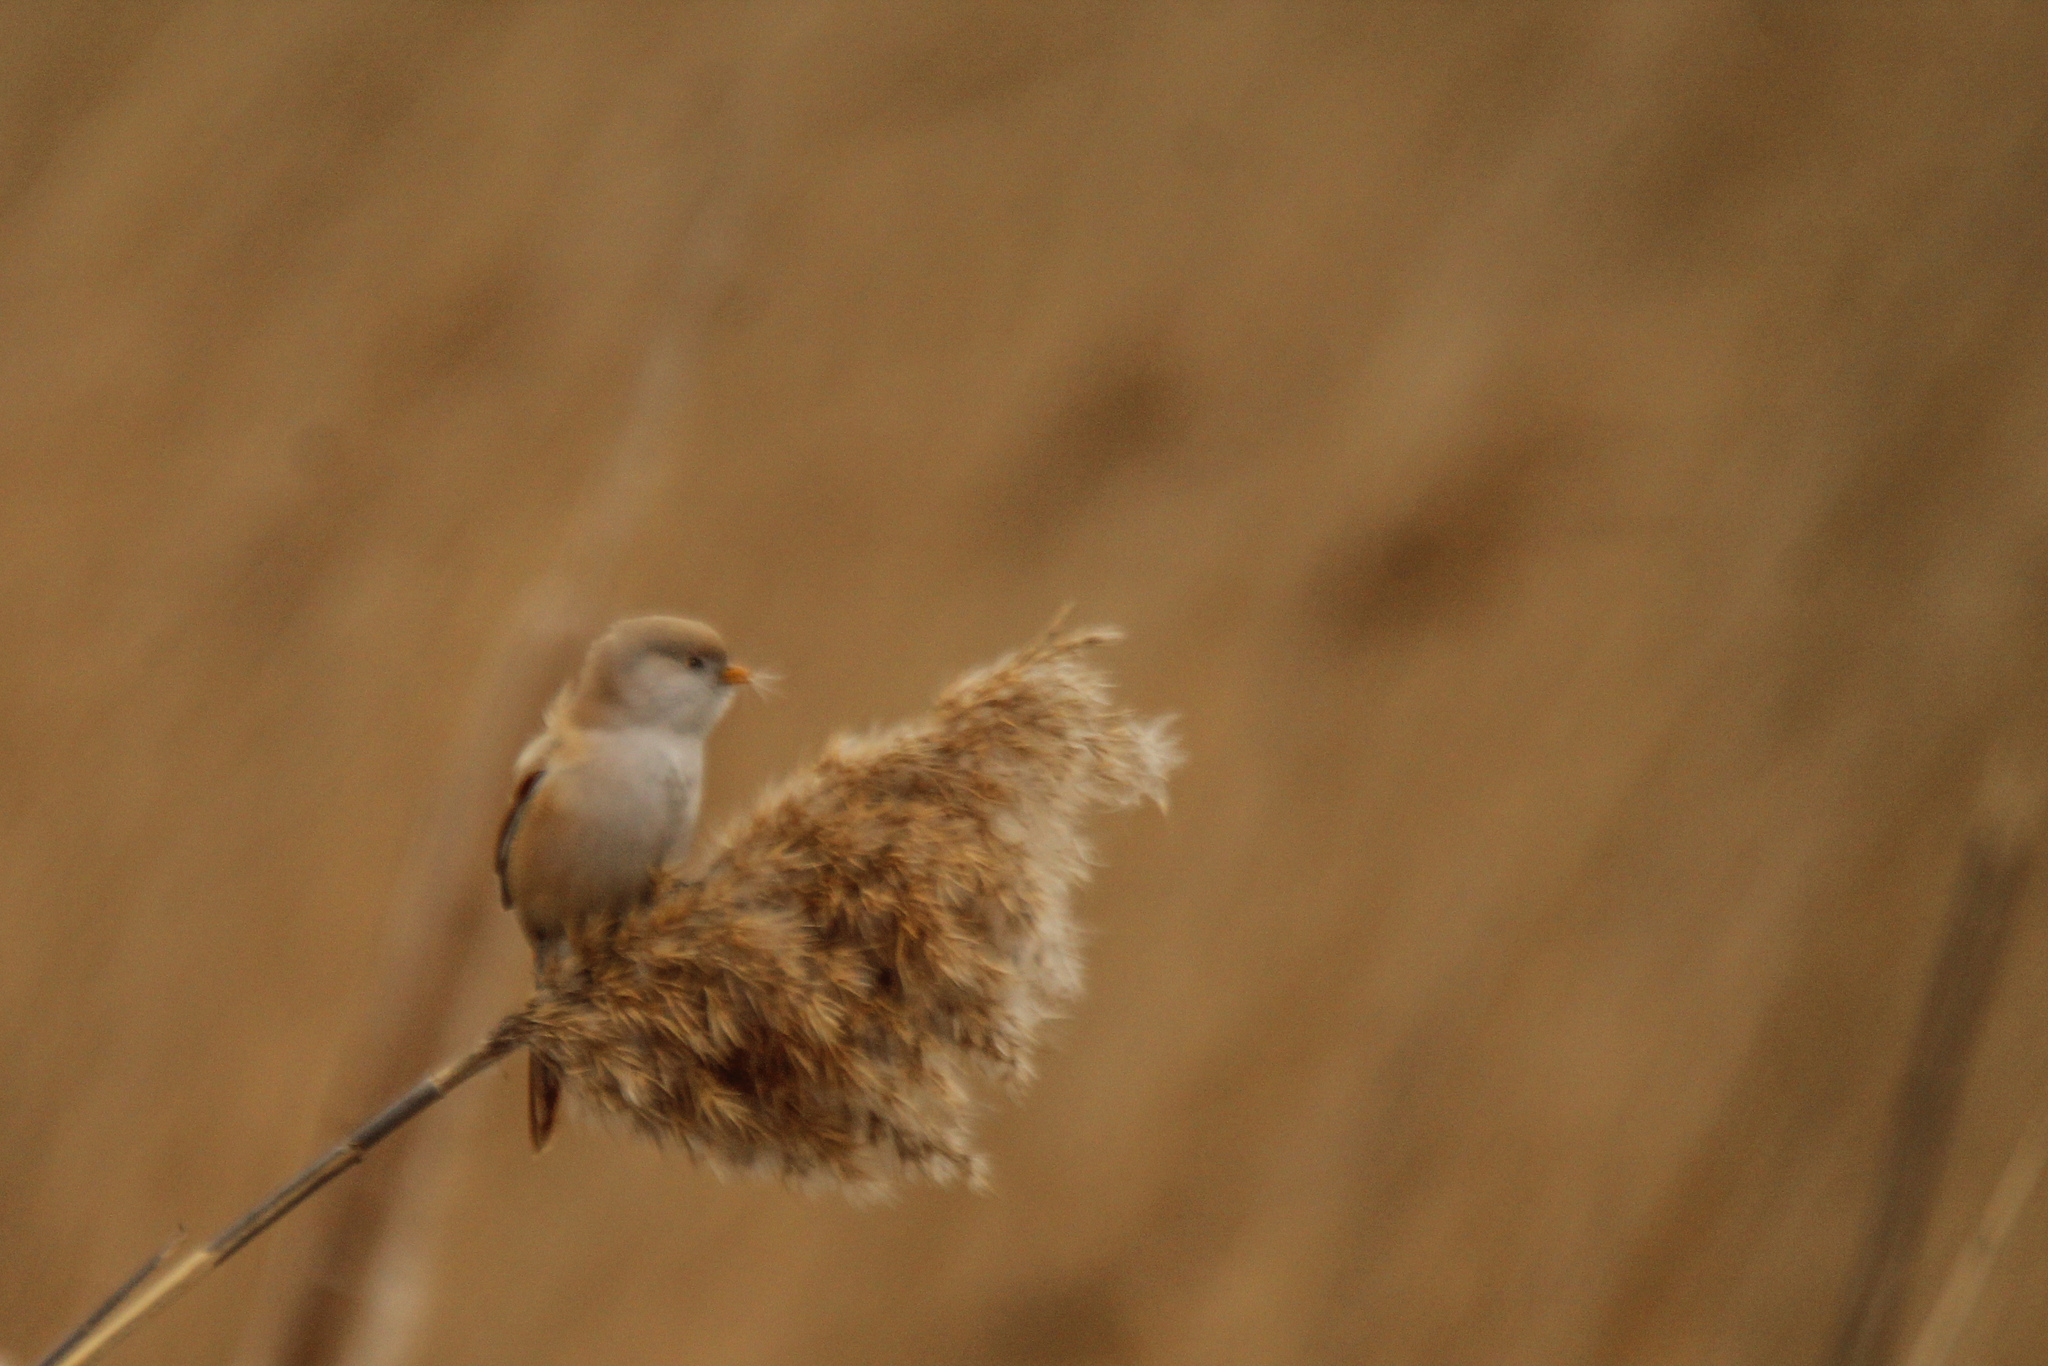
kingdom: Animalia
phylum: Chordata
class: Aves
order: Passeriformes
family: Panuridae
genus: Panurus
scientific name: Panurus biarmicus
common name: Bearded reedling
